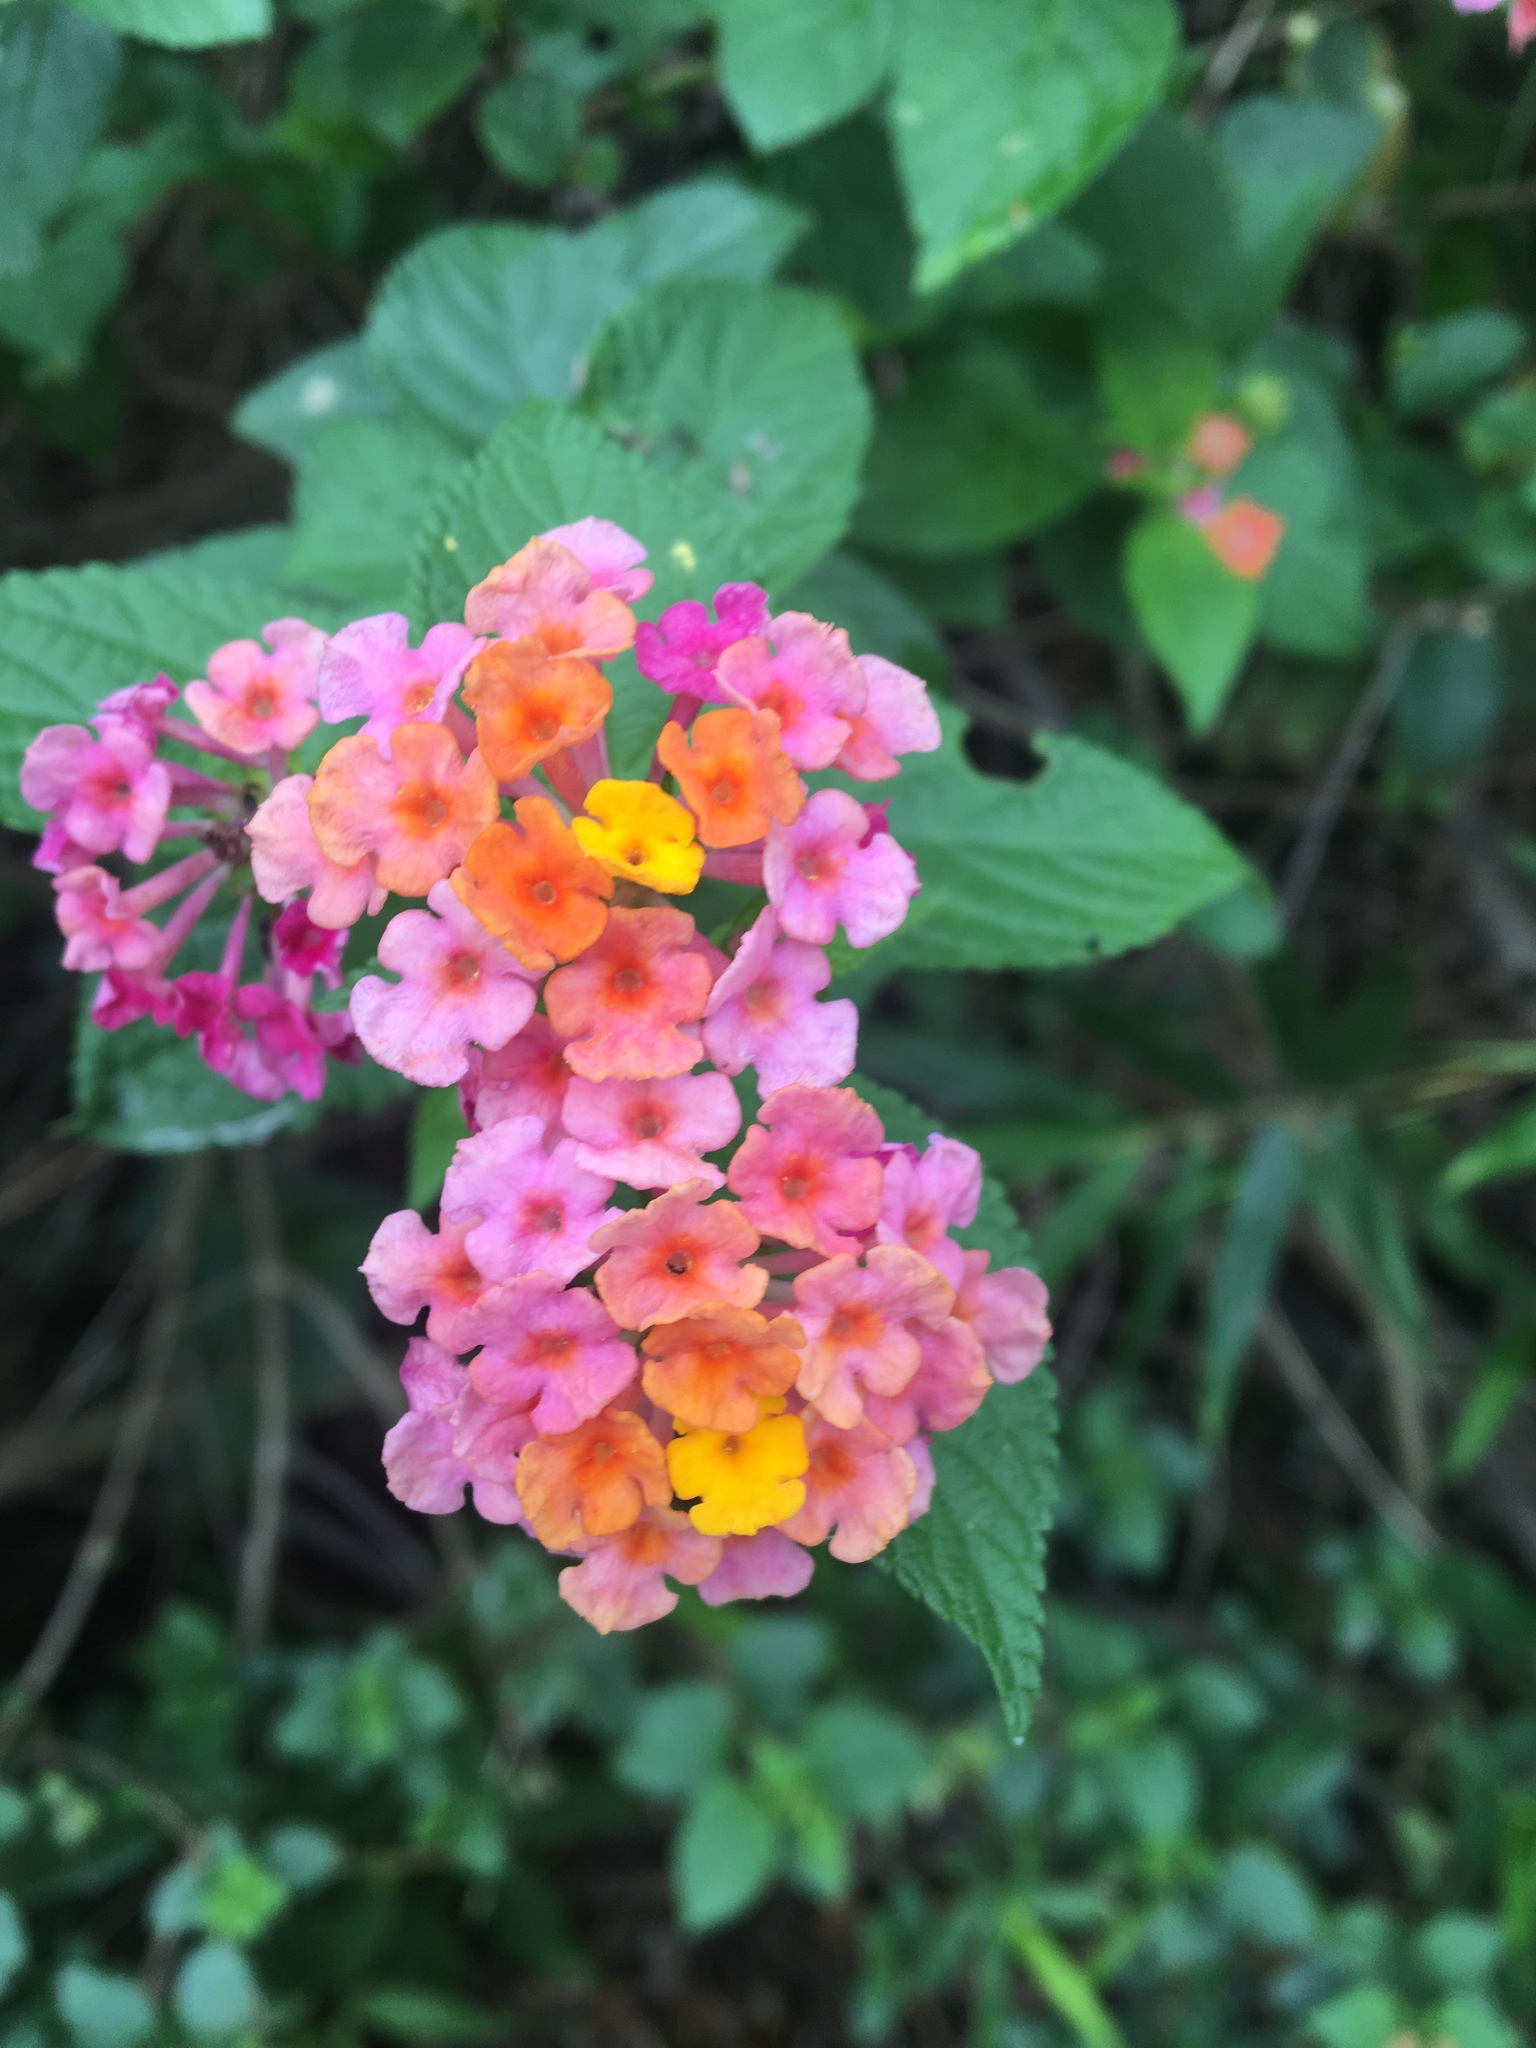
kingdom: Plantae
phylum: Tracheophyta
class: Magnoliopsida
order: Lamiales
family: Verbenaceae
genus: Lantana
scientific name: Lantana camara
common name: Lantana
